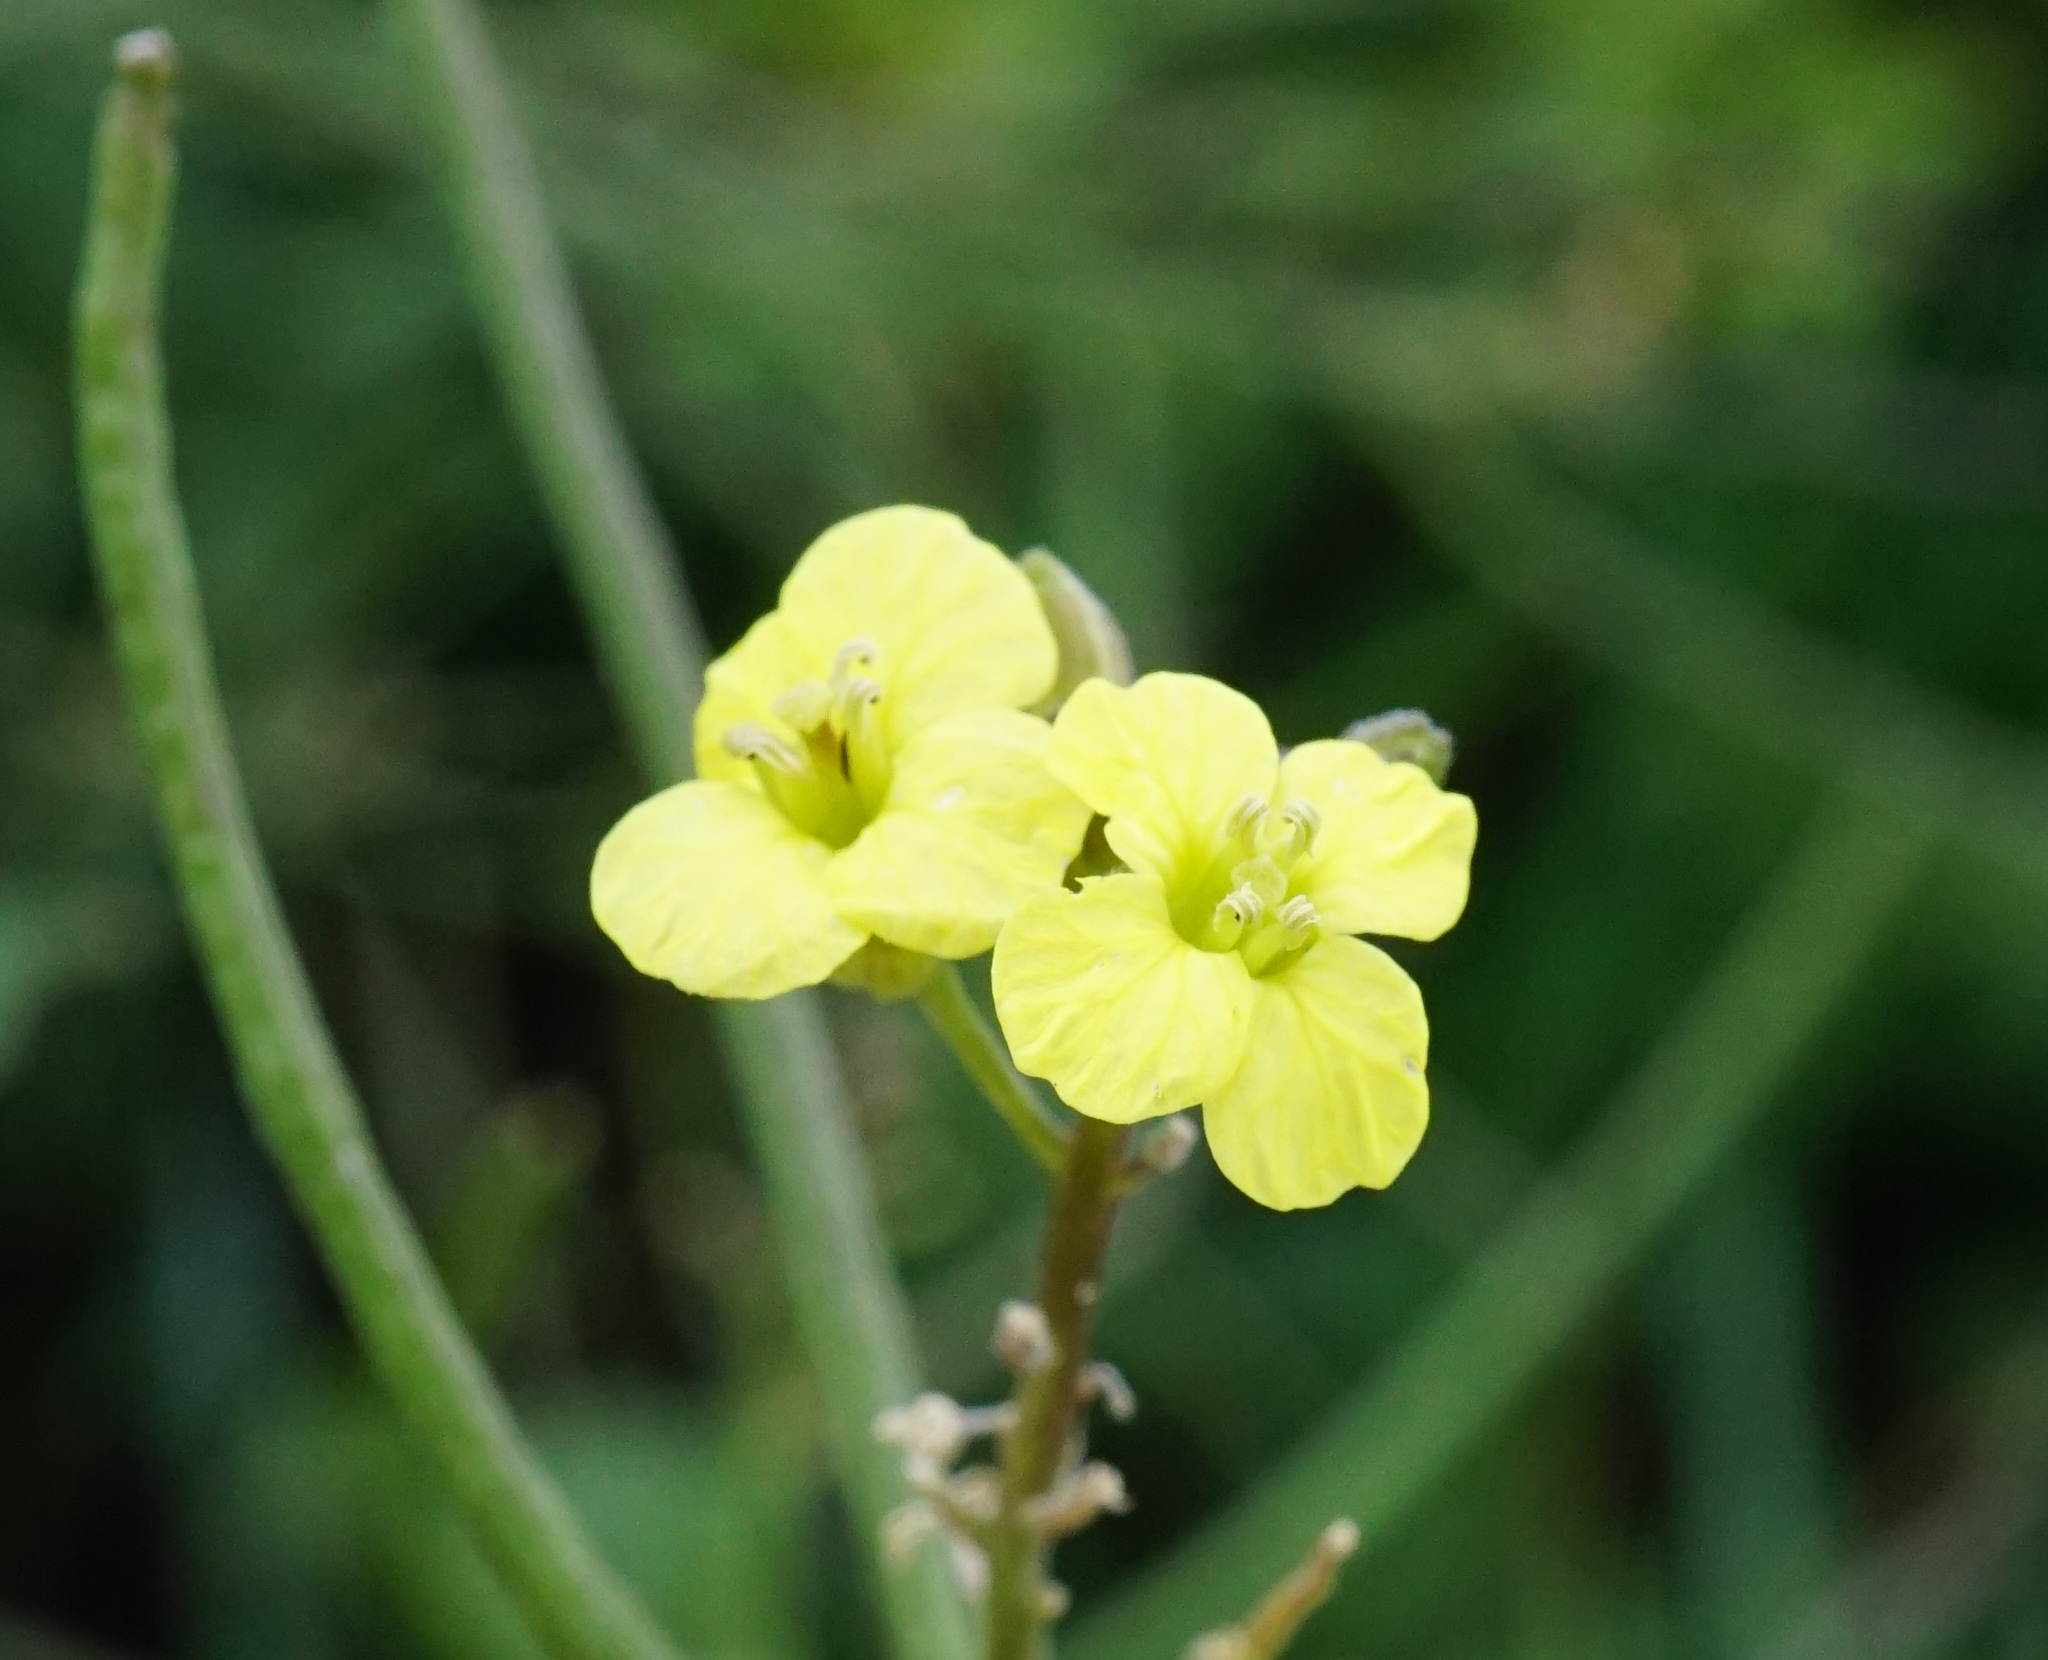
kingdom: Plantae
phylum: Tracheophyta
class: Magnoliopsida
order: Brassicales
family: Brassicaceae
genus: Sisymbrium
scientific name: Sisymbrium orientale
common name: Eastern rocket
